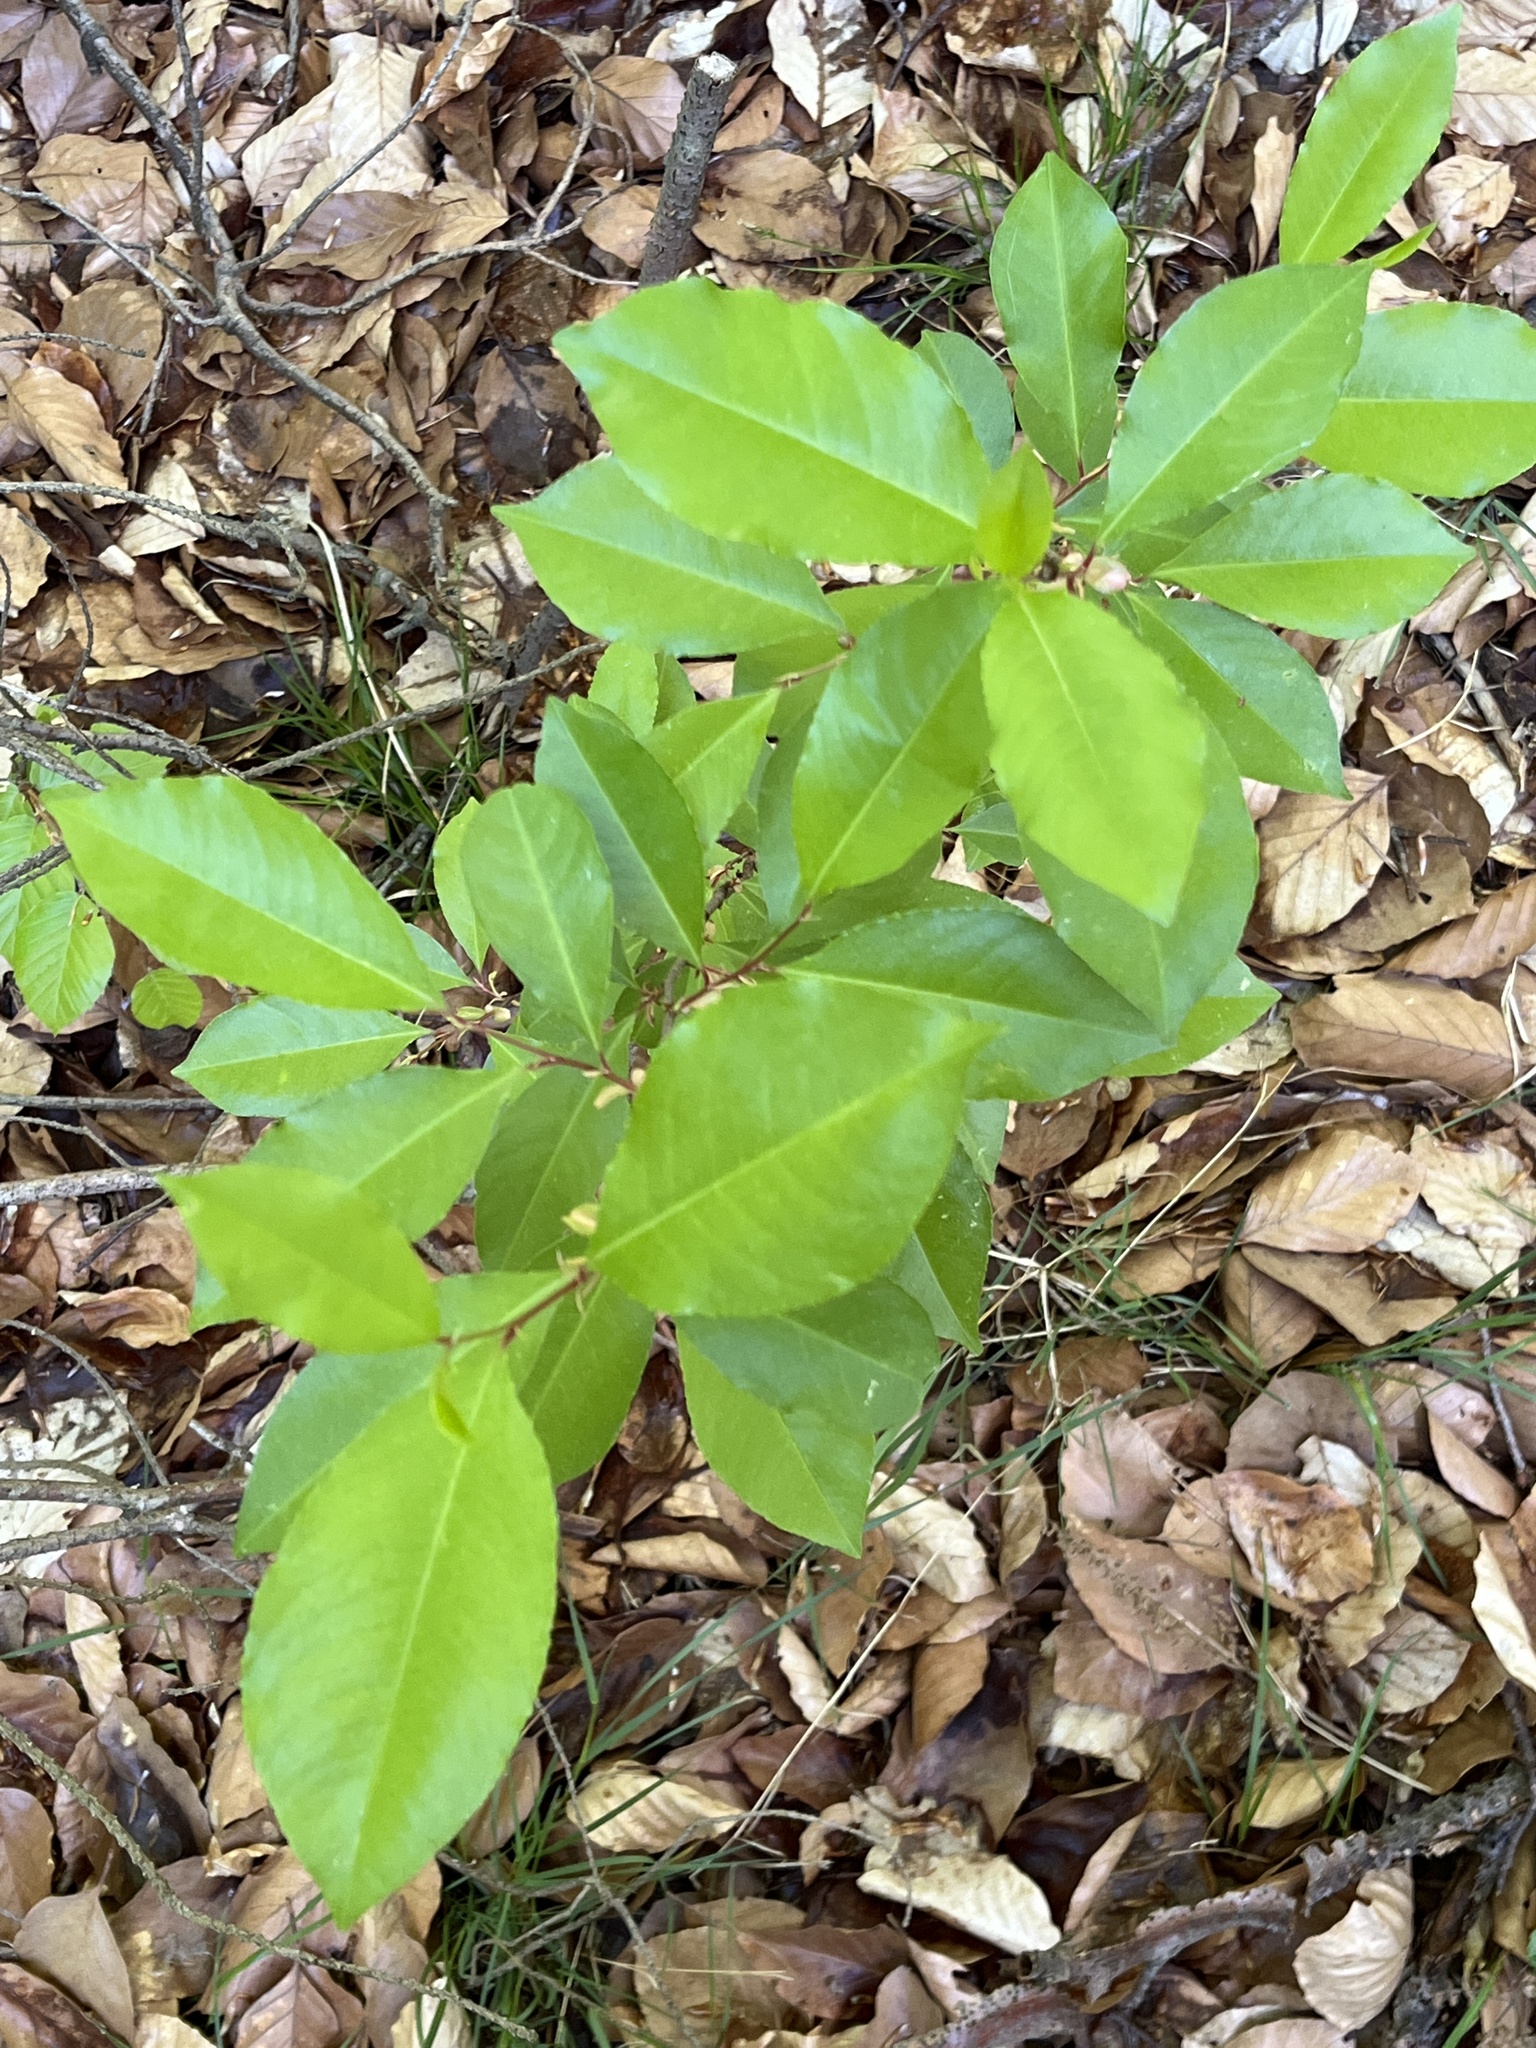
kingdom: Plantae
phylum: Tracheophyta
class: Magnoliopsida
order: Rosales
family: Rosaceae
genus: Prunus
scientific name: Prunus serotina
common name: Black cherry
